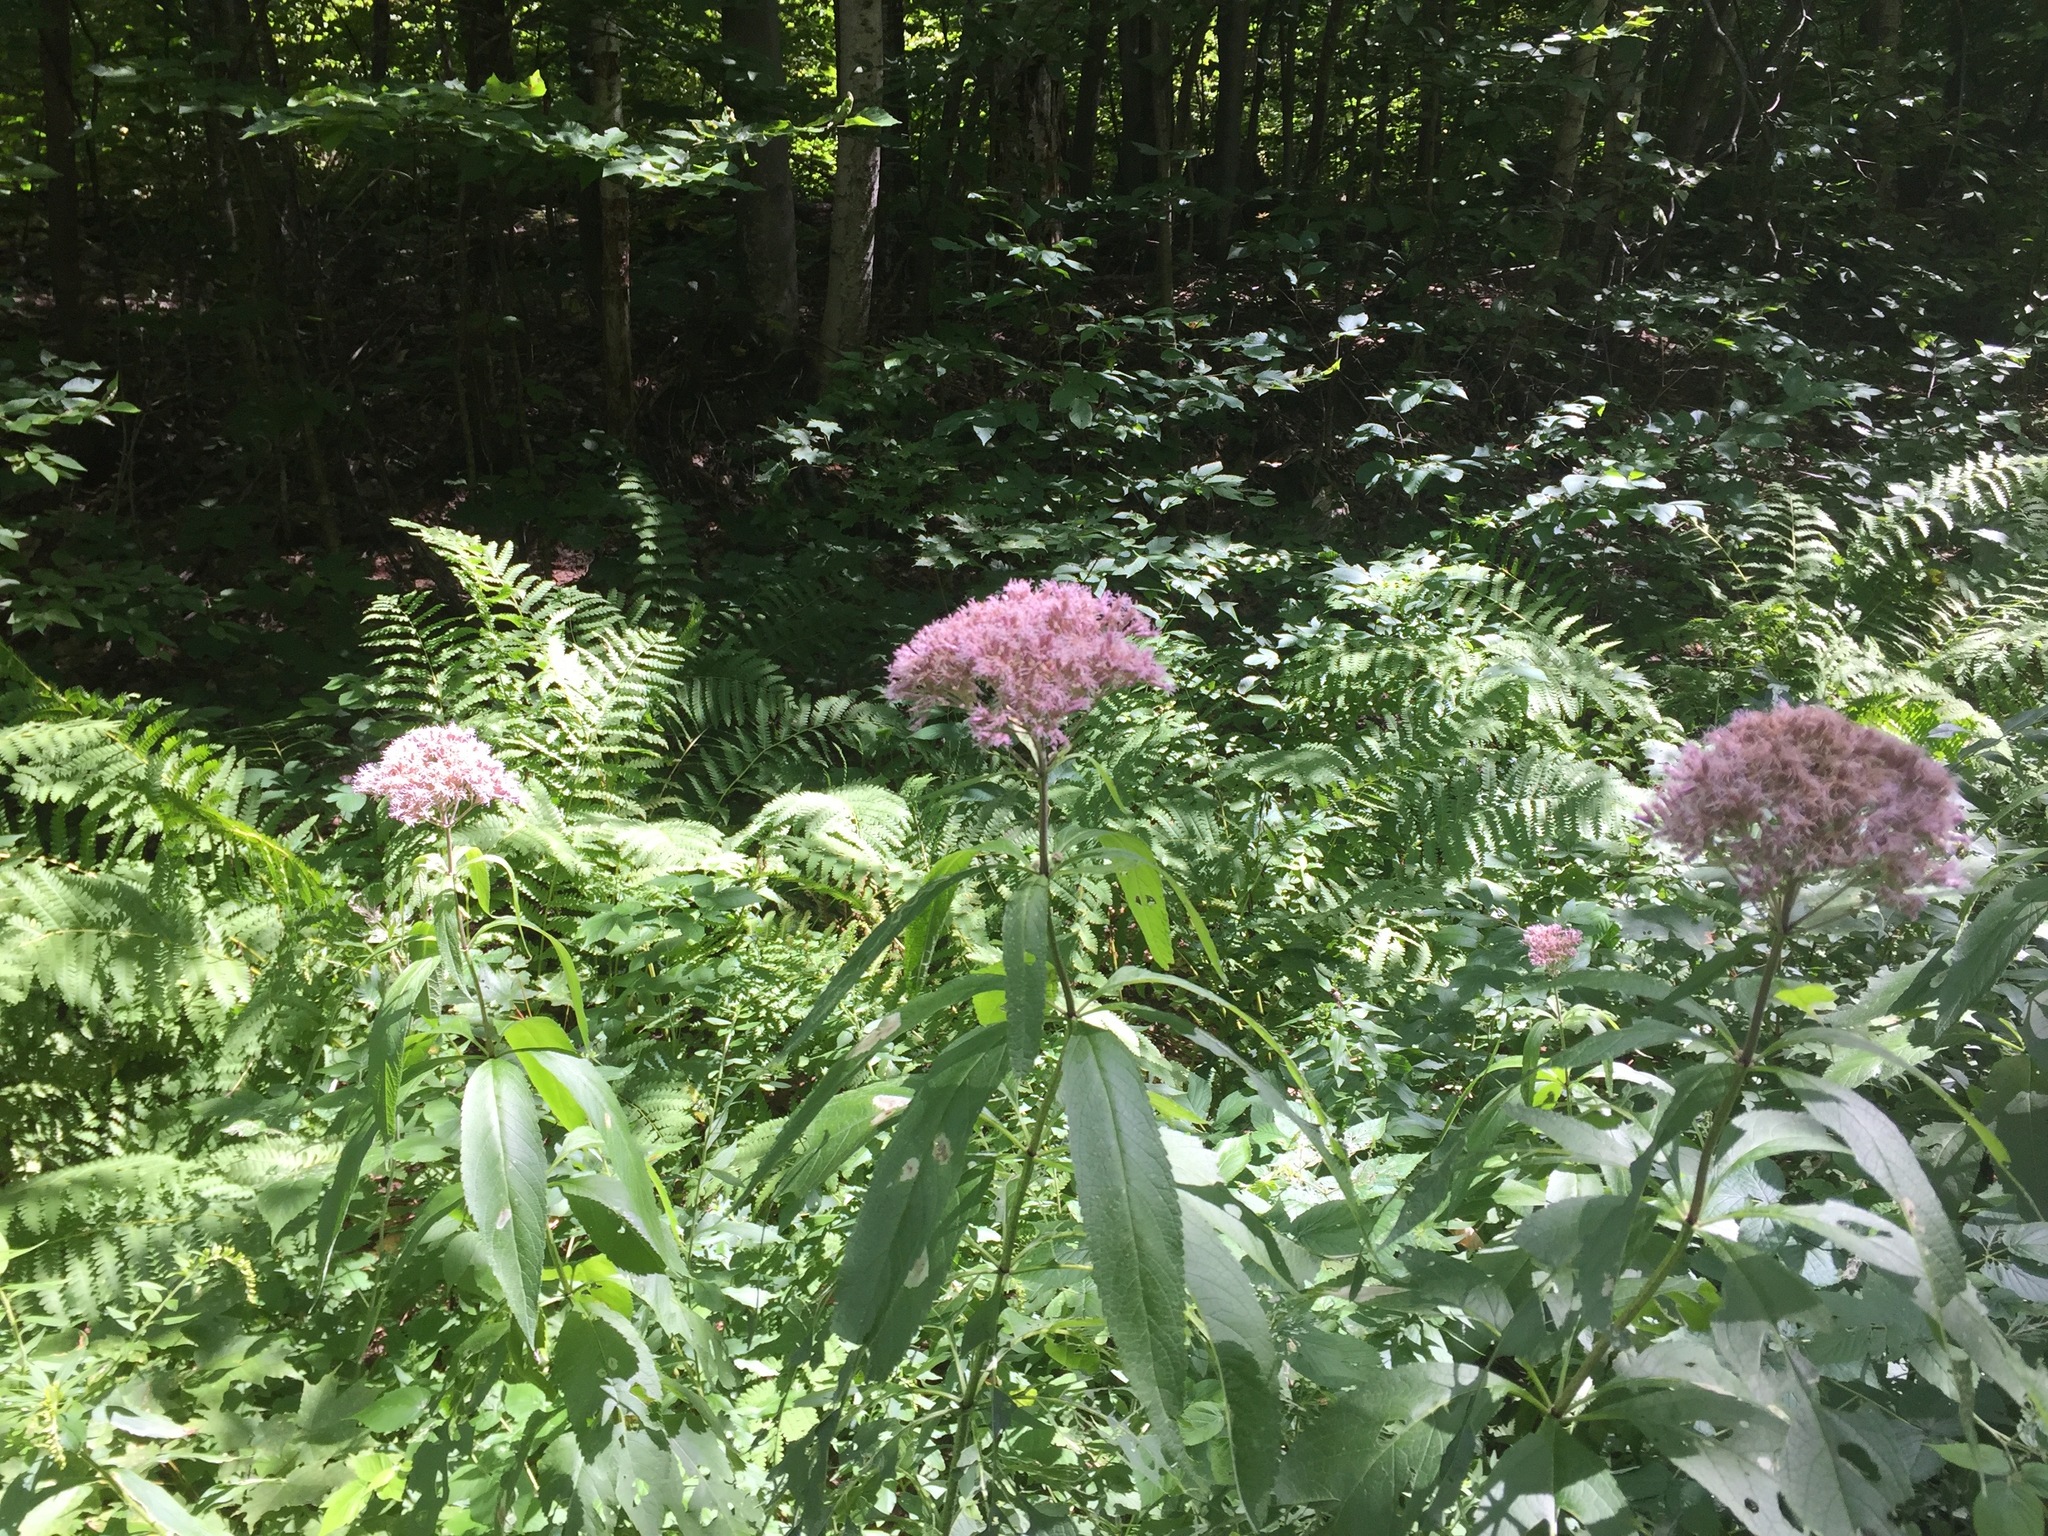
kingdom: Plantae
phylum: Tracheophyta
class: Magnoliopsida
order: Asterales
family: Asteraceae
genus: Eutrochium
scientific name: Eutrochium purpureum
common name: Gravelroot
